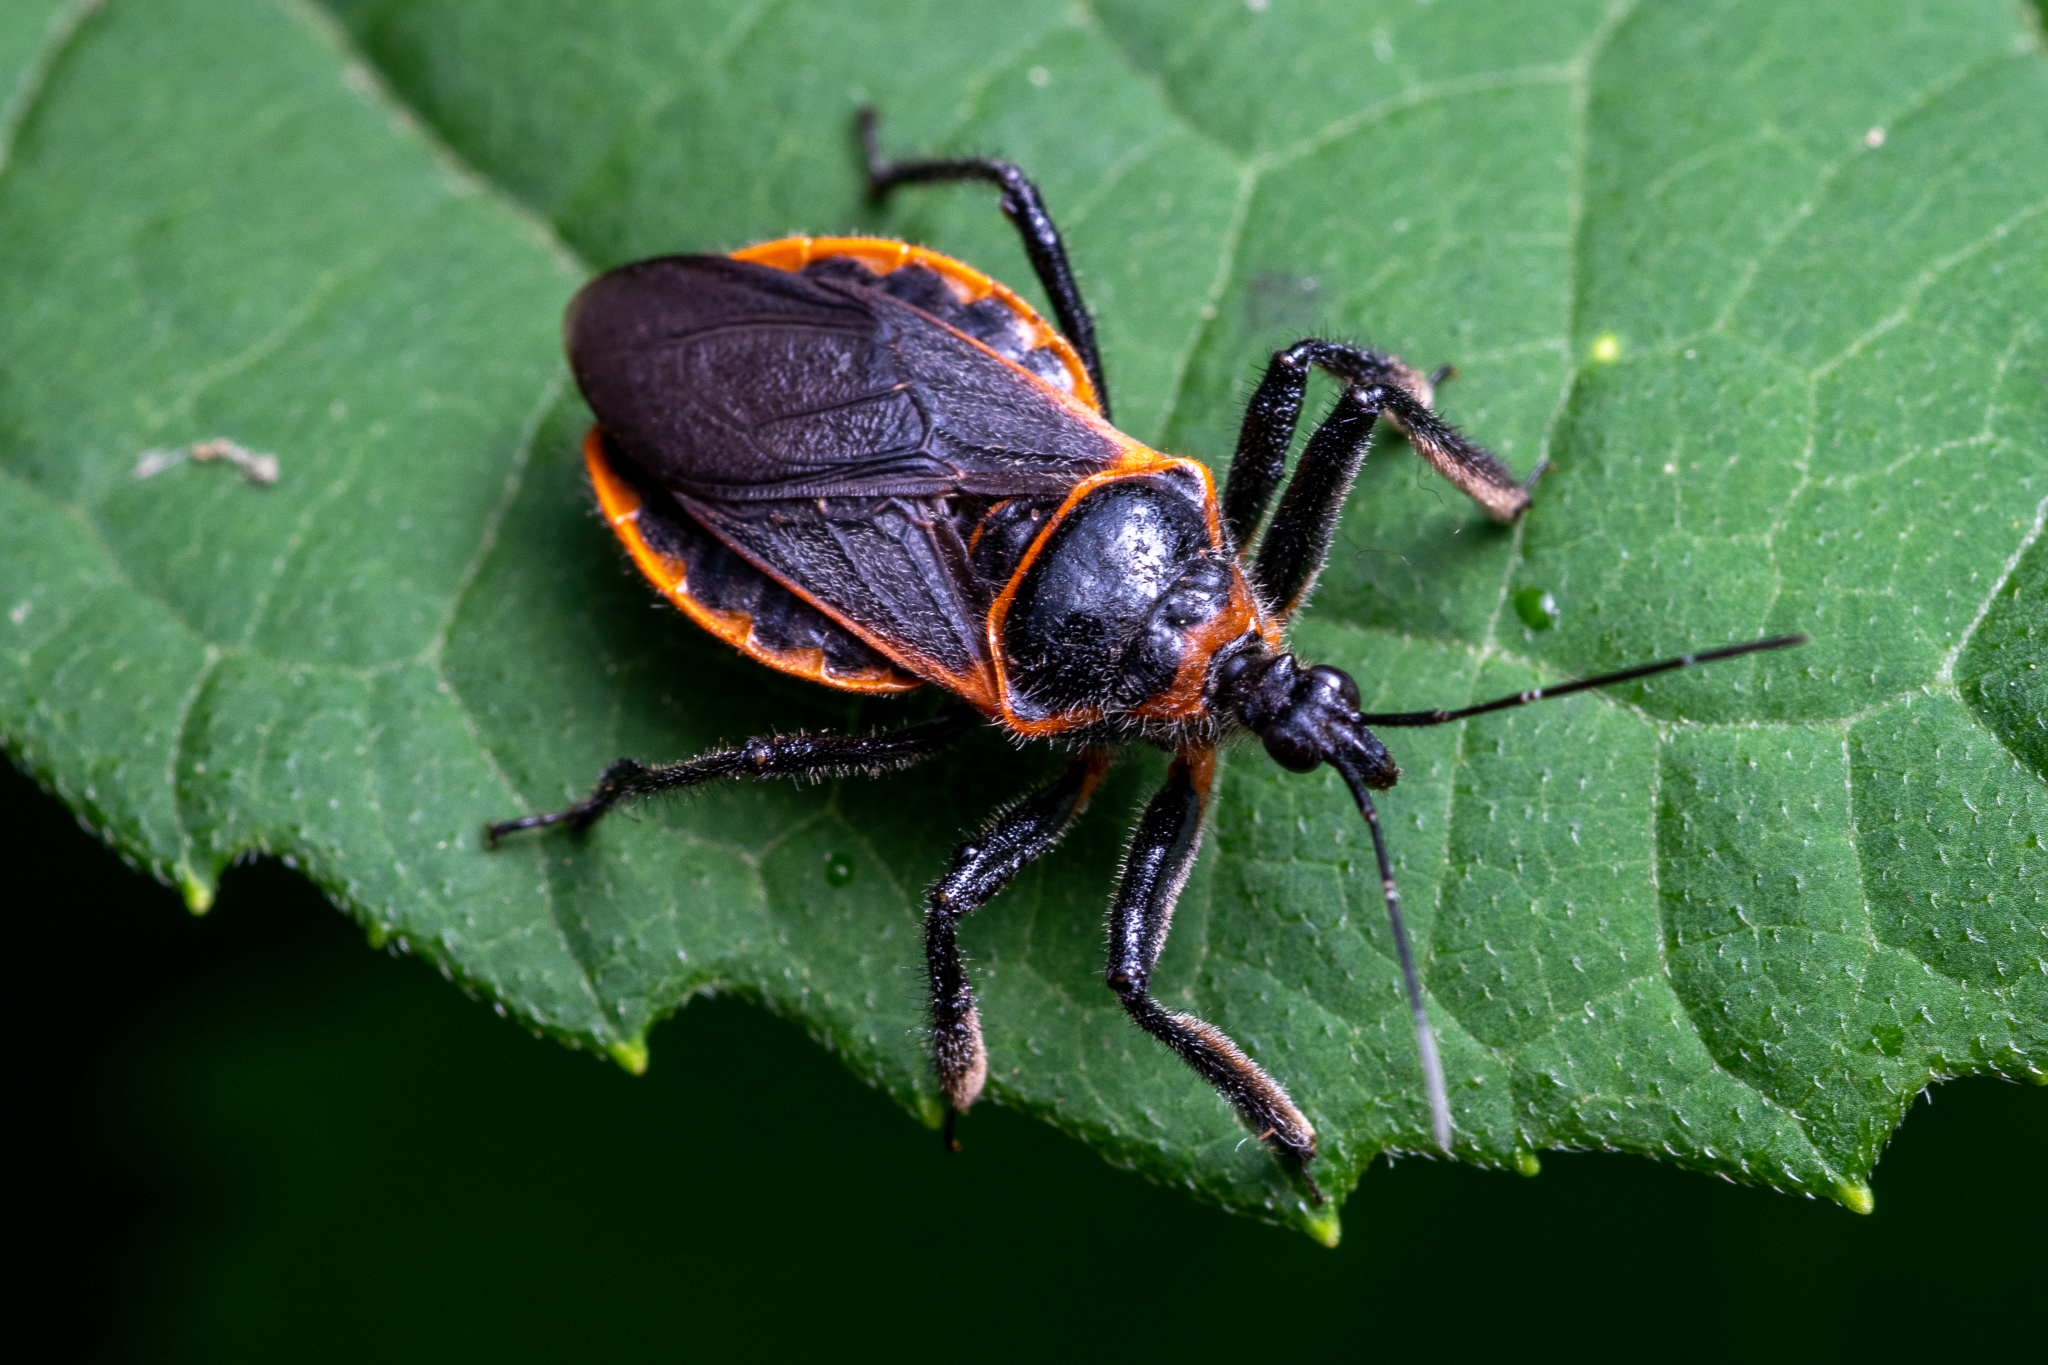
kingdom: Animalia
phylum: Arthropoda
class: Insecta
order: Hemiptera
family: Reduviidae
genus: Apiomerus
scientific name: Apiomerus crassipes
